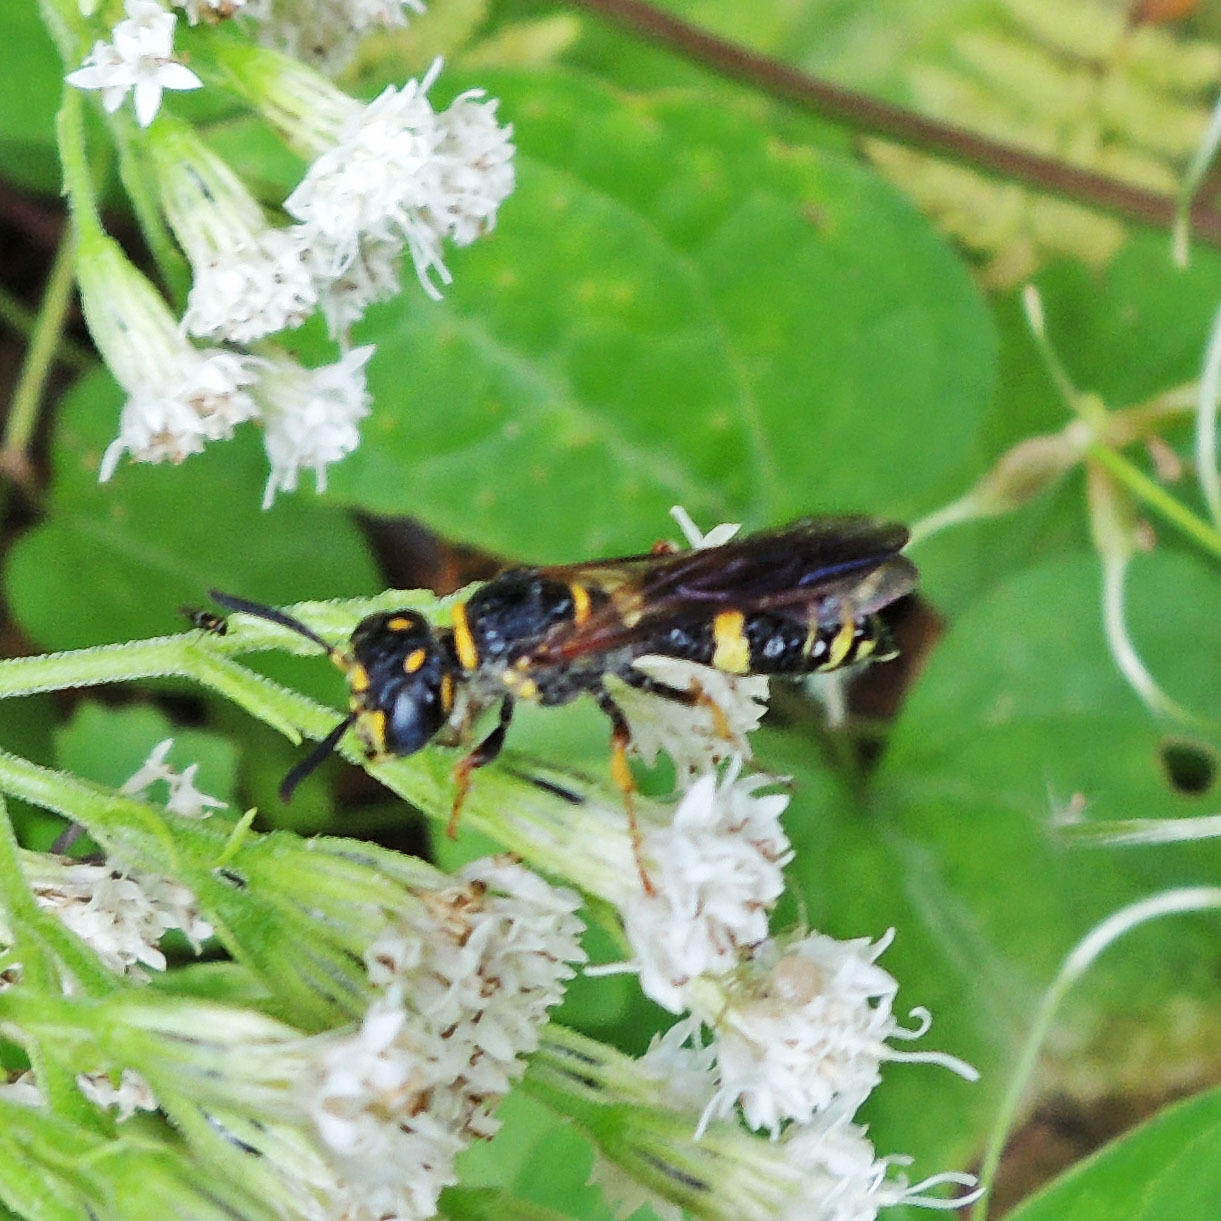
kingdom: Animalia
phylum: Arthropoda
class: Insecta
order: Hymenoptera
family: Crabronidae
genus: Philanthus
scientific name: Philanthus gibbosus
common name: Humped beewolf
